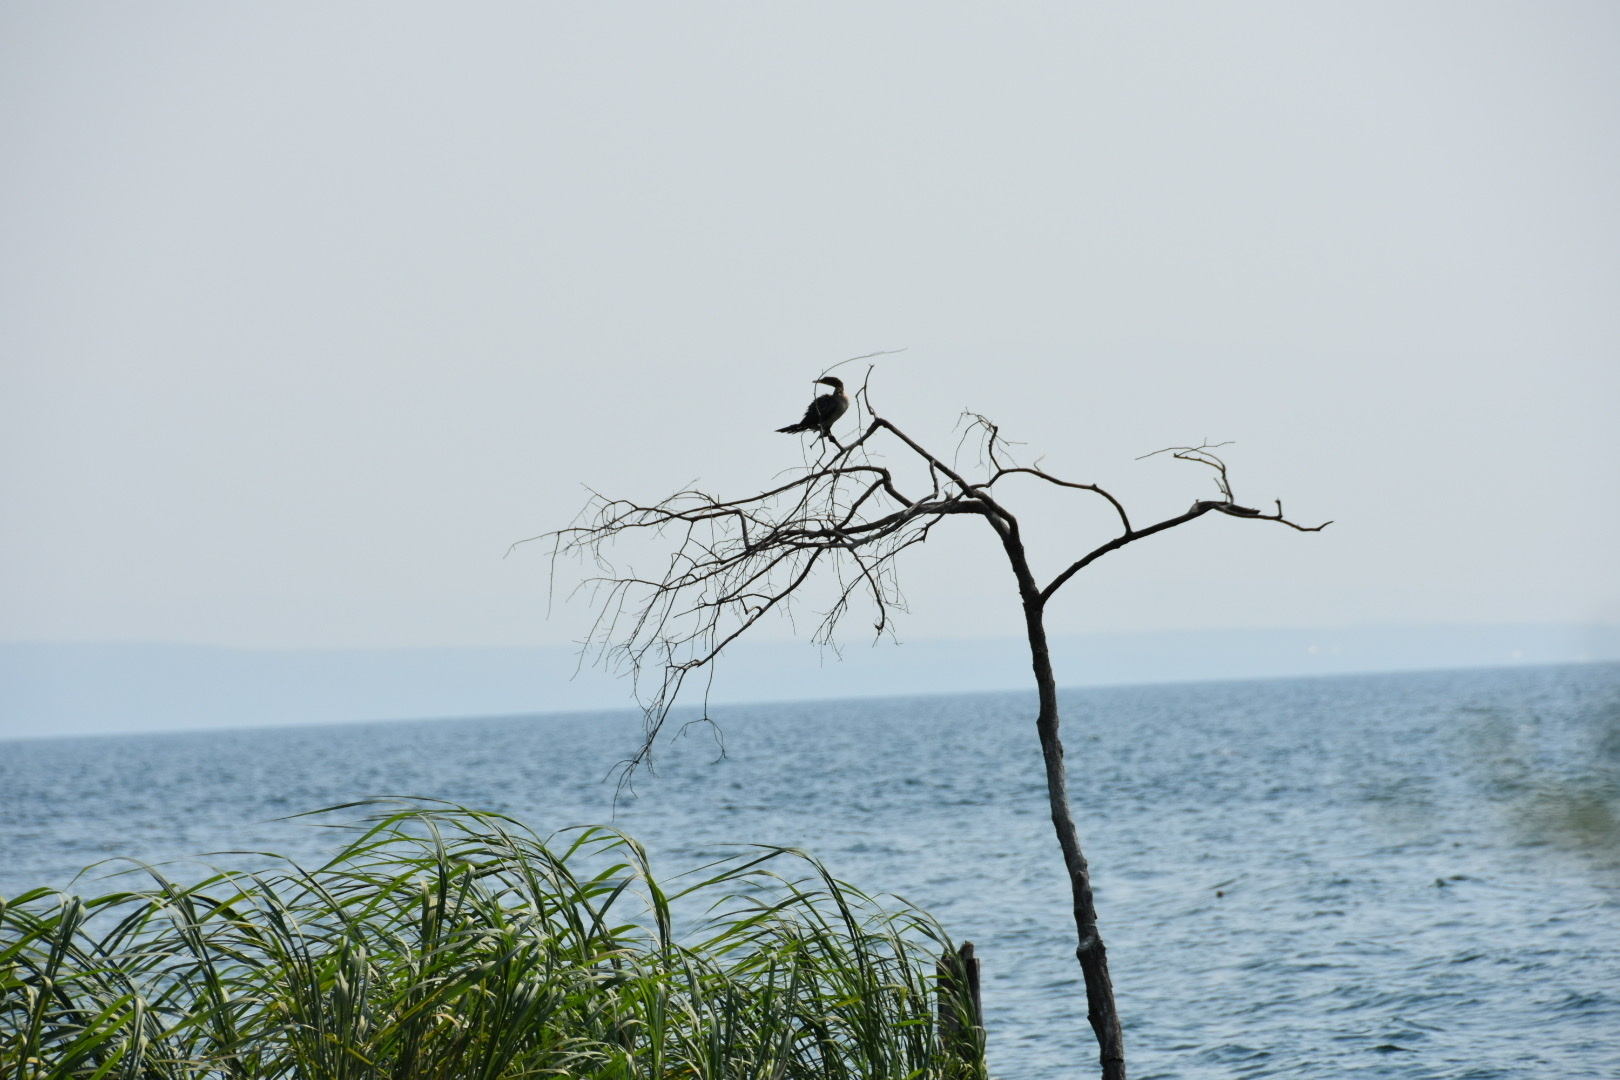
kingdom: Animalia
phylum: Chordata
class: Aves
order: Suliformes
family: Phalacrocoracidae
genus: Microcarbo
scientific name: Microcarbo africanus
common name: Long-tailed cormorant
